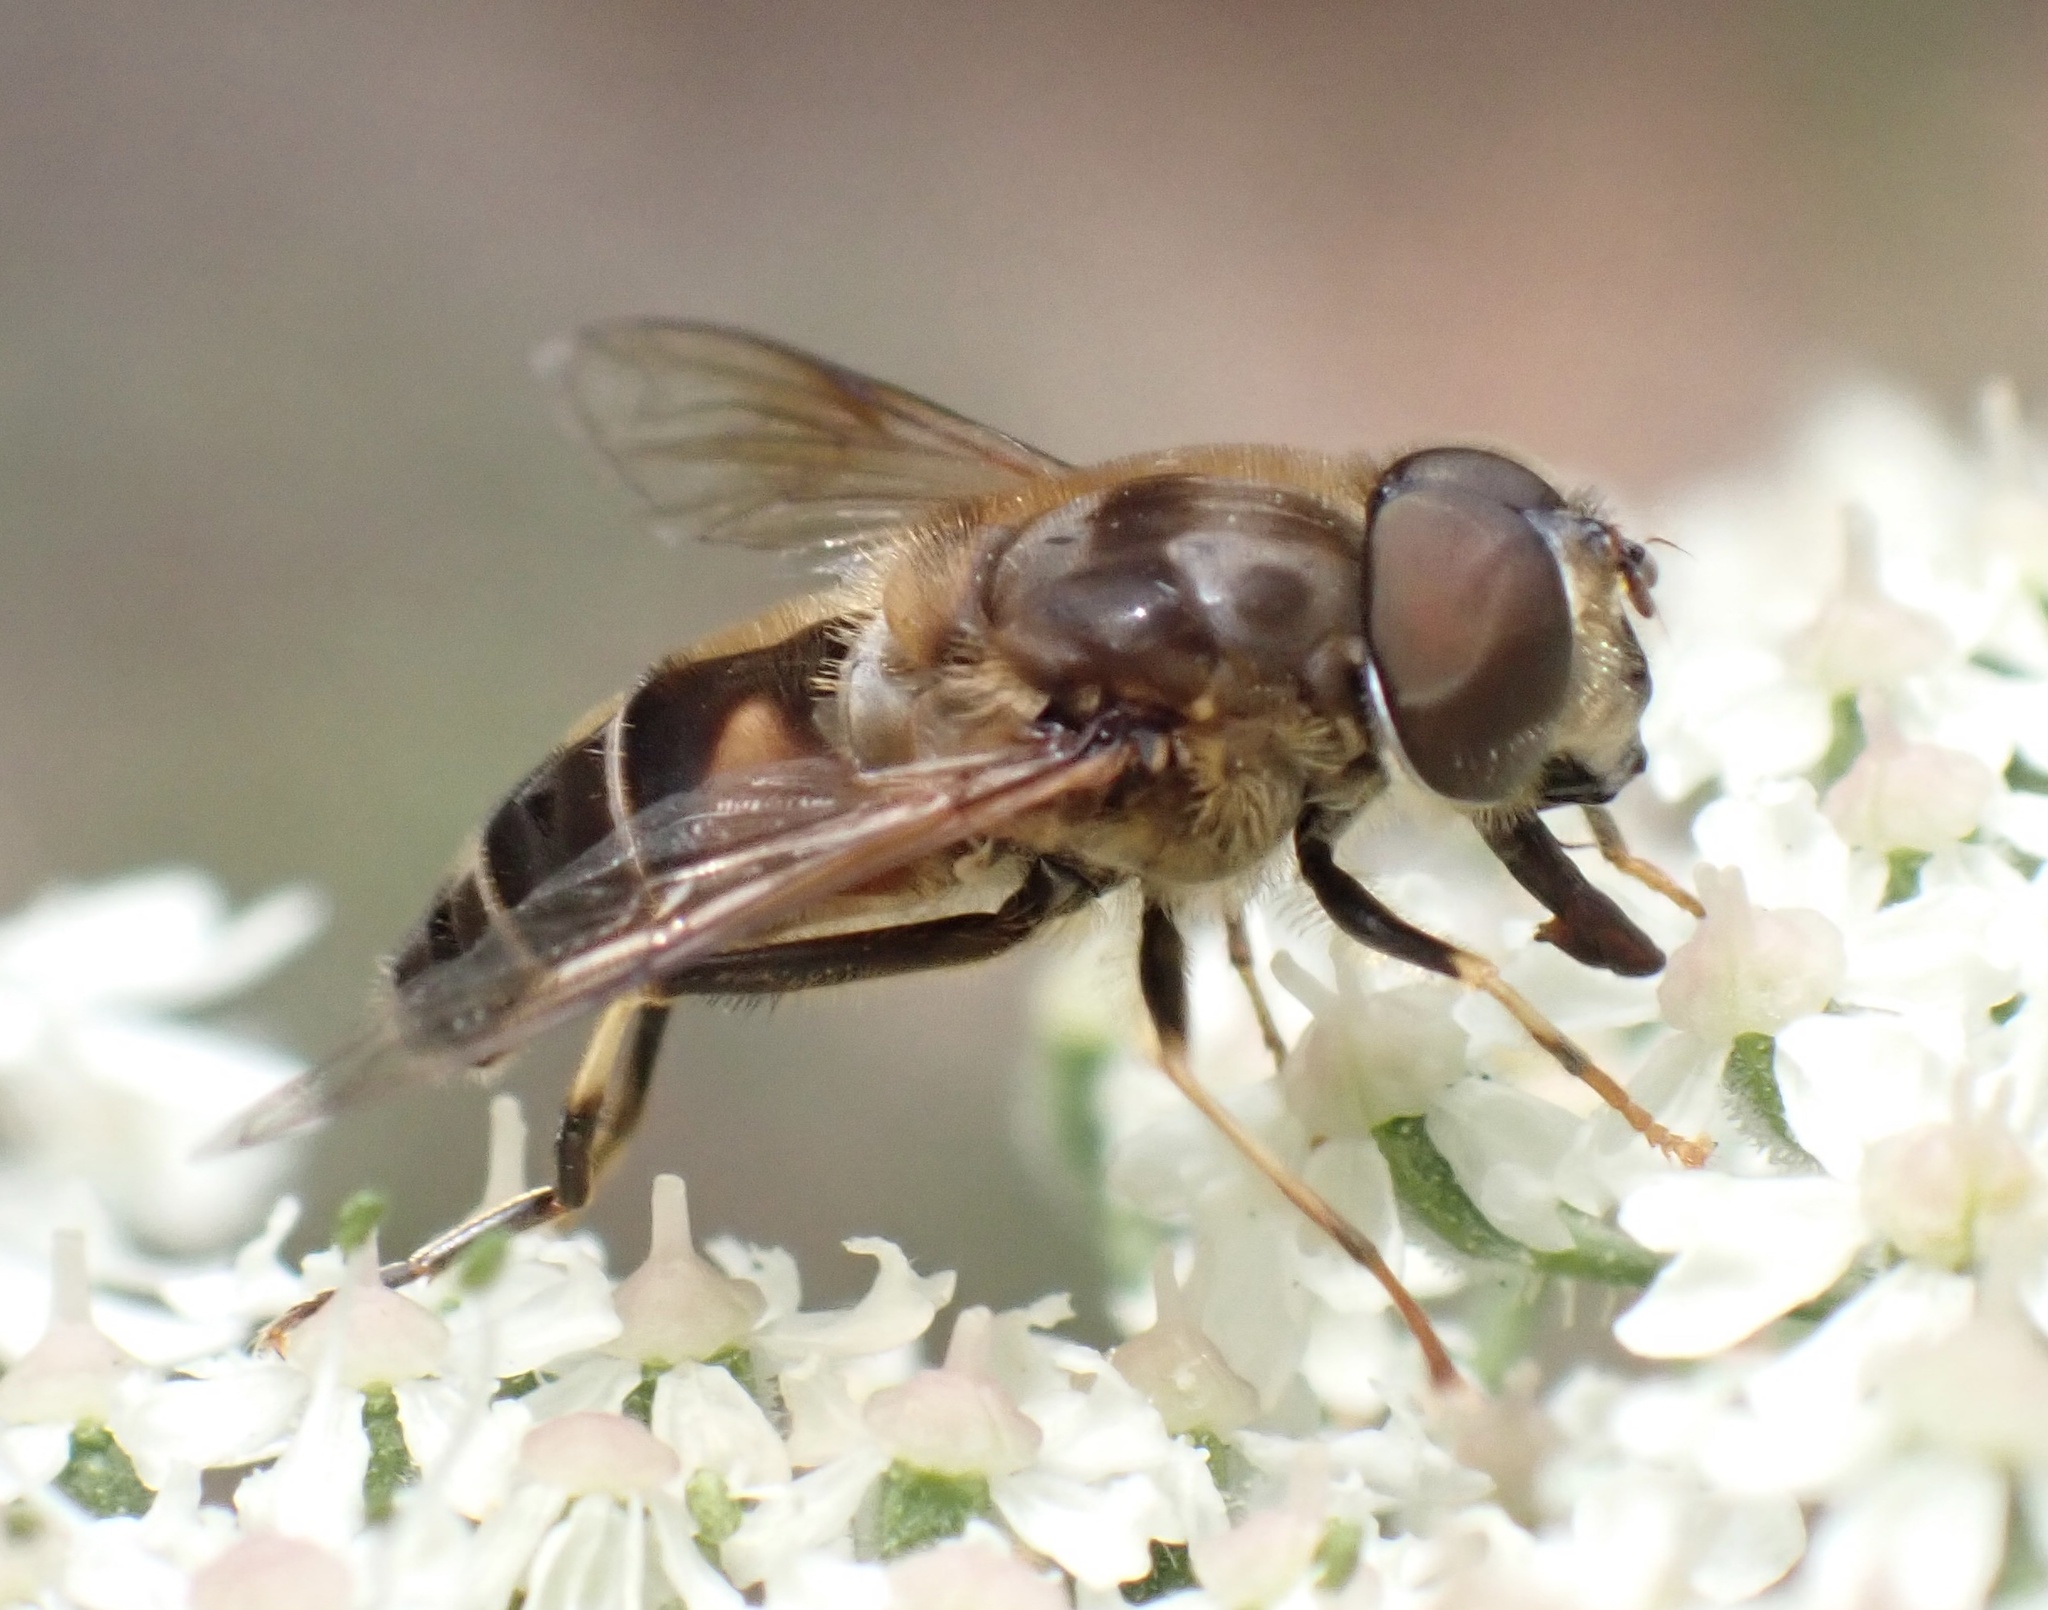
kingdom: Animalia
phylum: Arthropoda
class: Insecta
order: Diptera
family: Syrphidae
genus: Eristalis
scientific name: Eristalis pertinax
